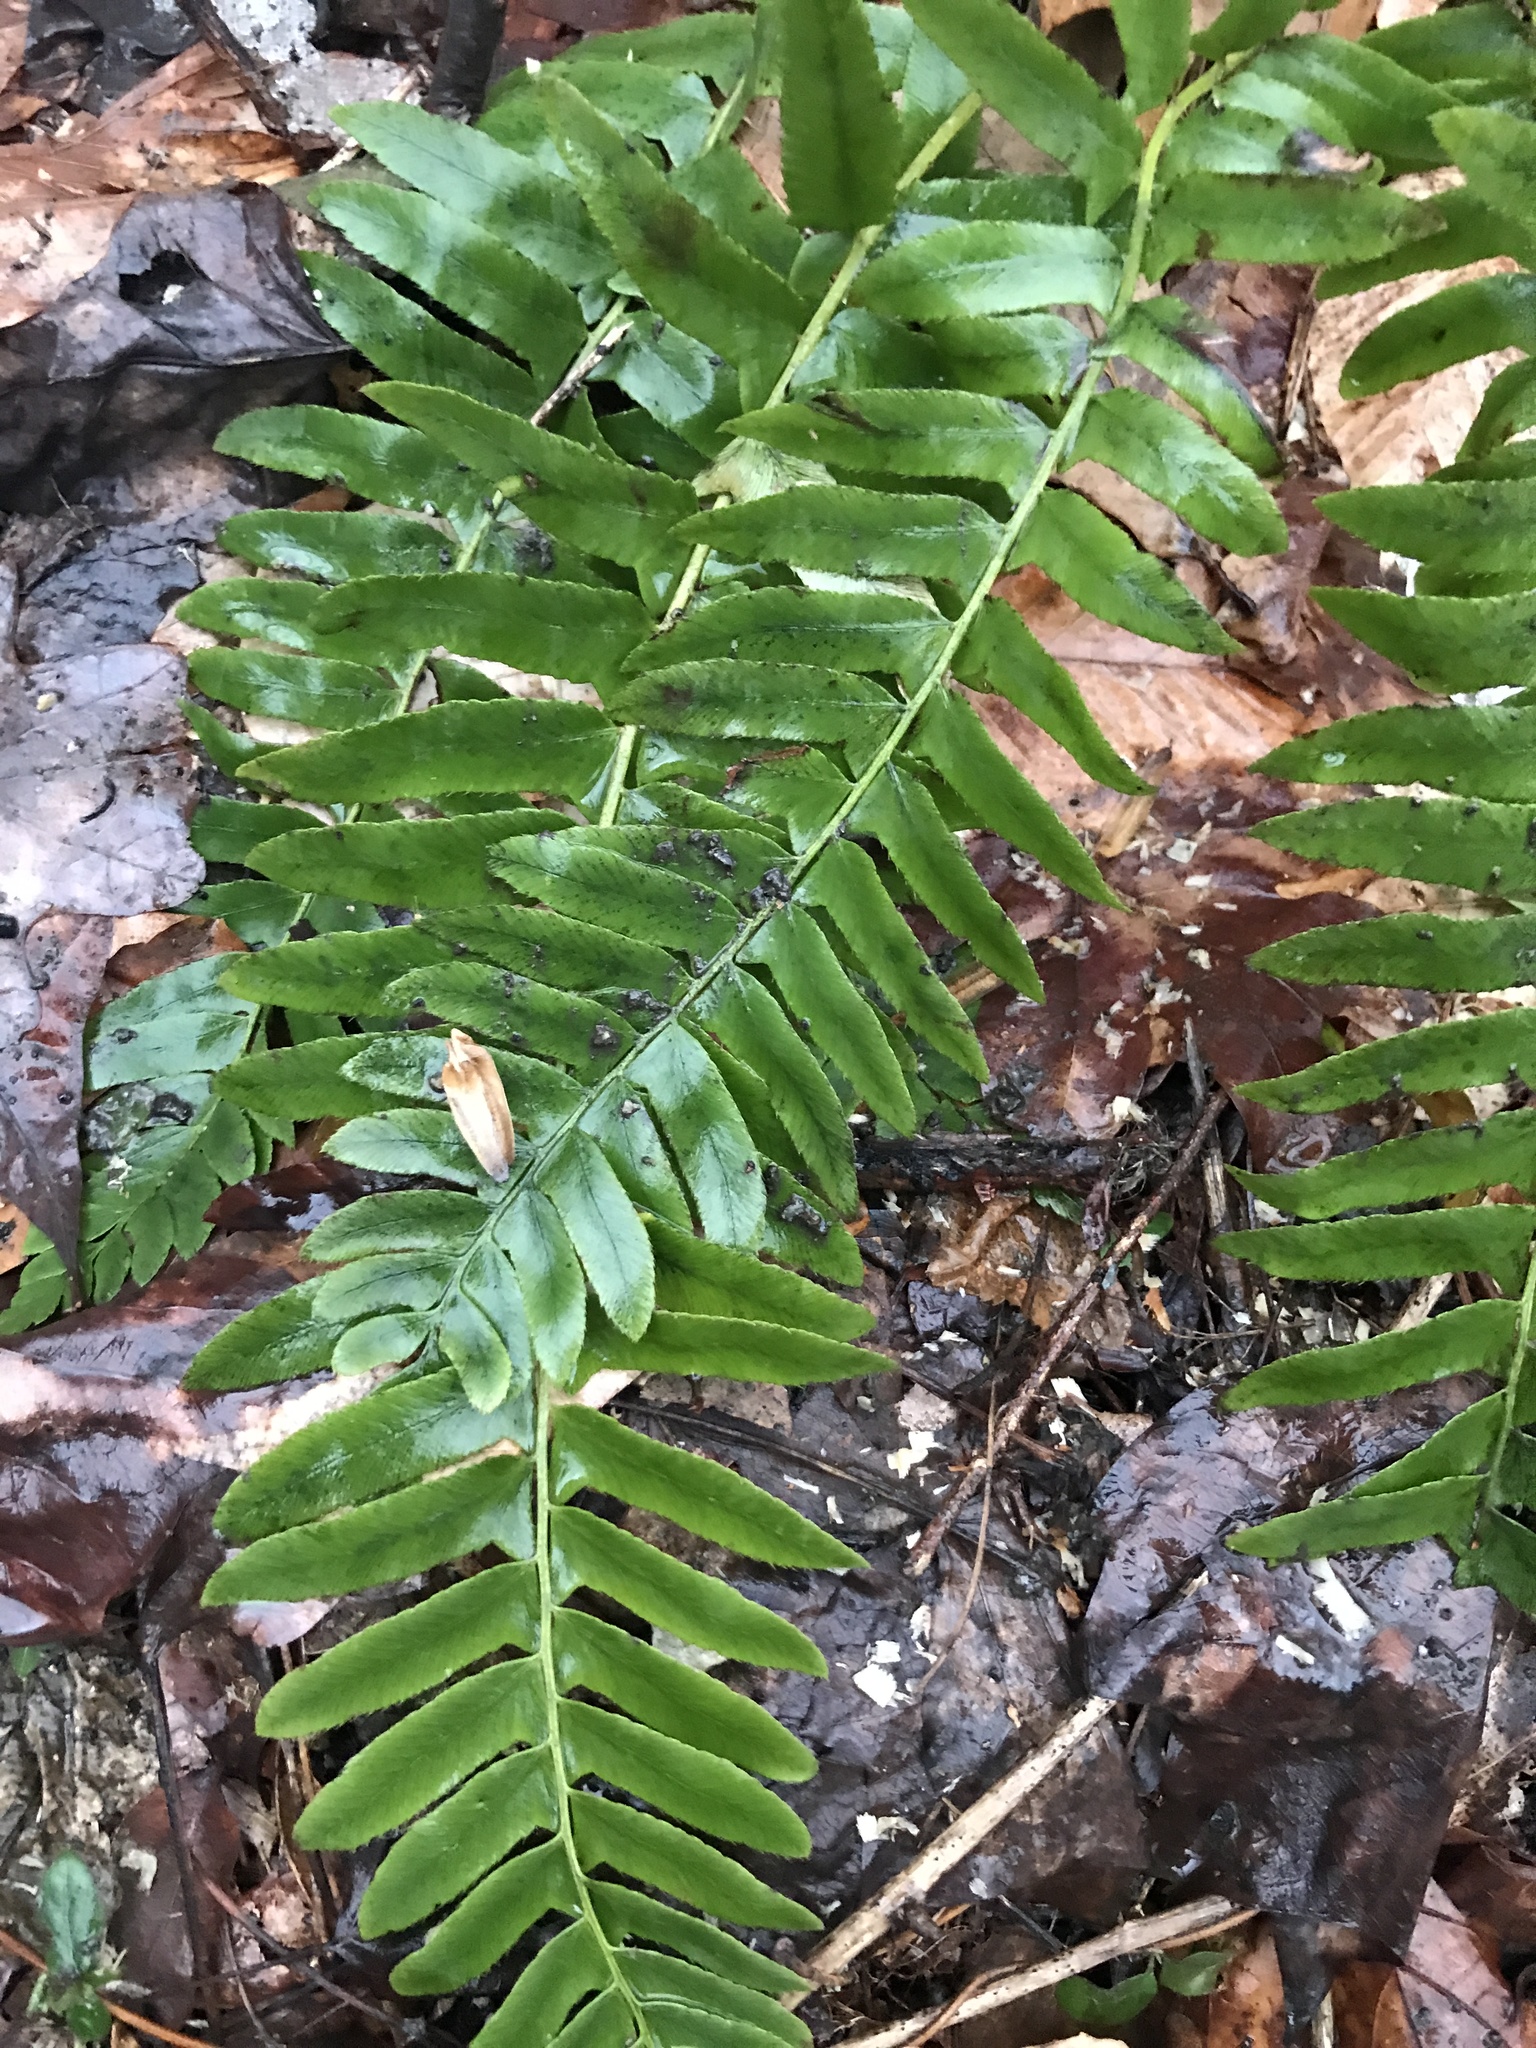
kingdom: Plantae
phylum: Tracheophyta
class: Polypodiopsida
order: Polypodiales
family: Dryopteridaceae
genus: Polystichum
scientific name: Polystichum acrostichoides
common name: Christmas fern
